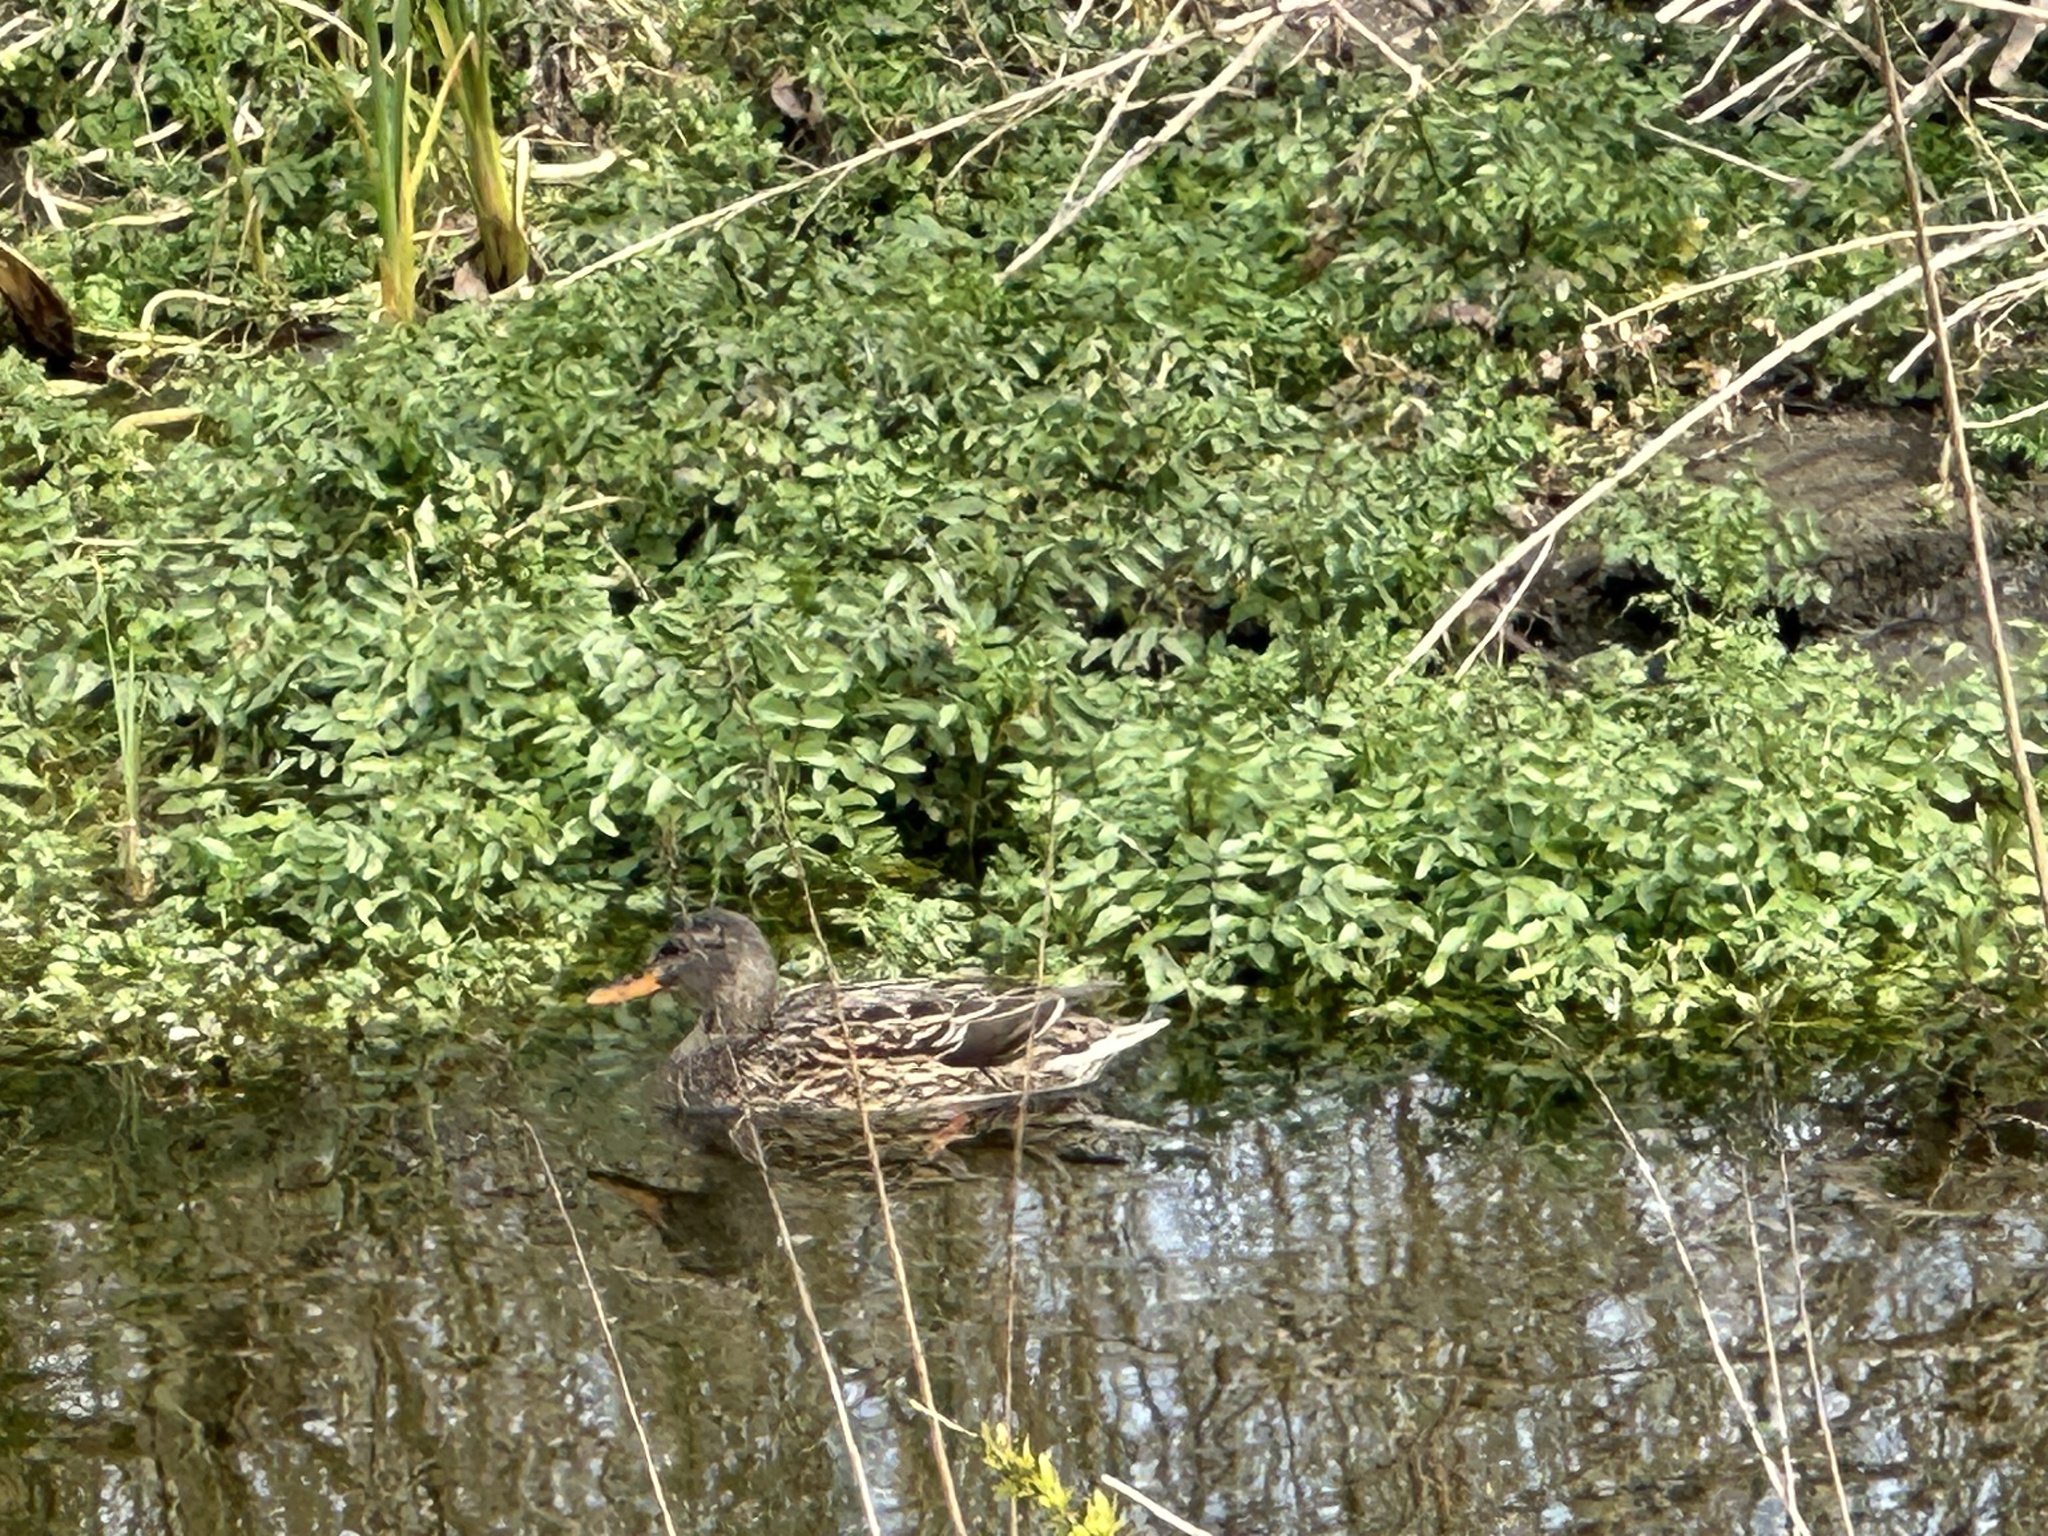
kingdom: Animalia
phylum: Chordata
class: Aves
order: Anseriformes
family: Anatidae
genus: Anas
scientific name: Anas platyrhynchos
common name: Mallard
